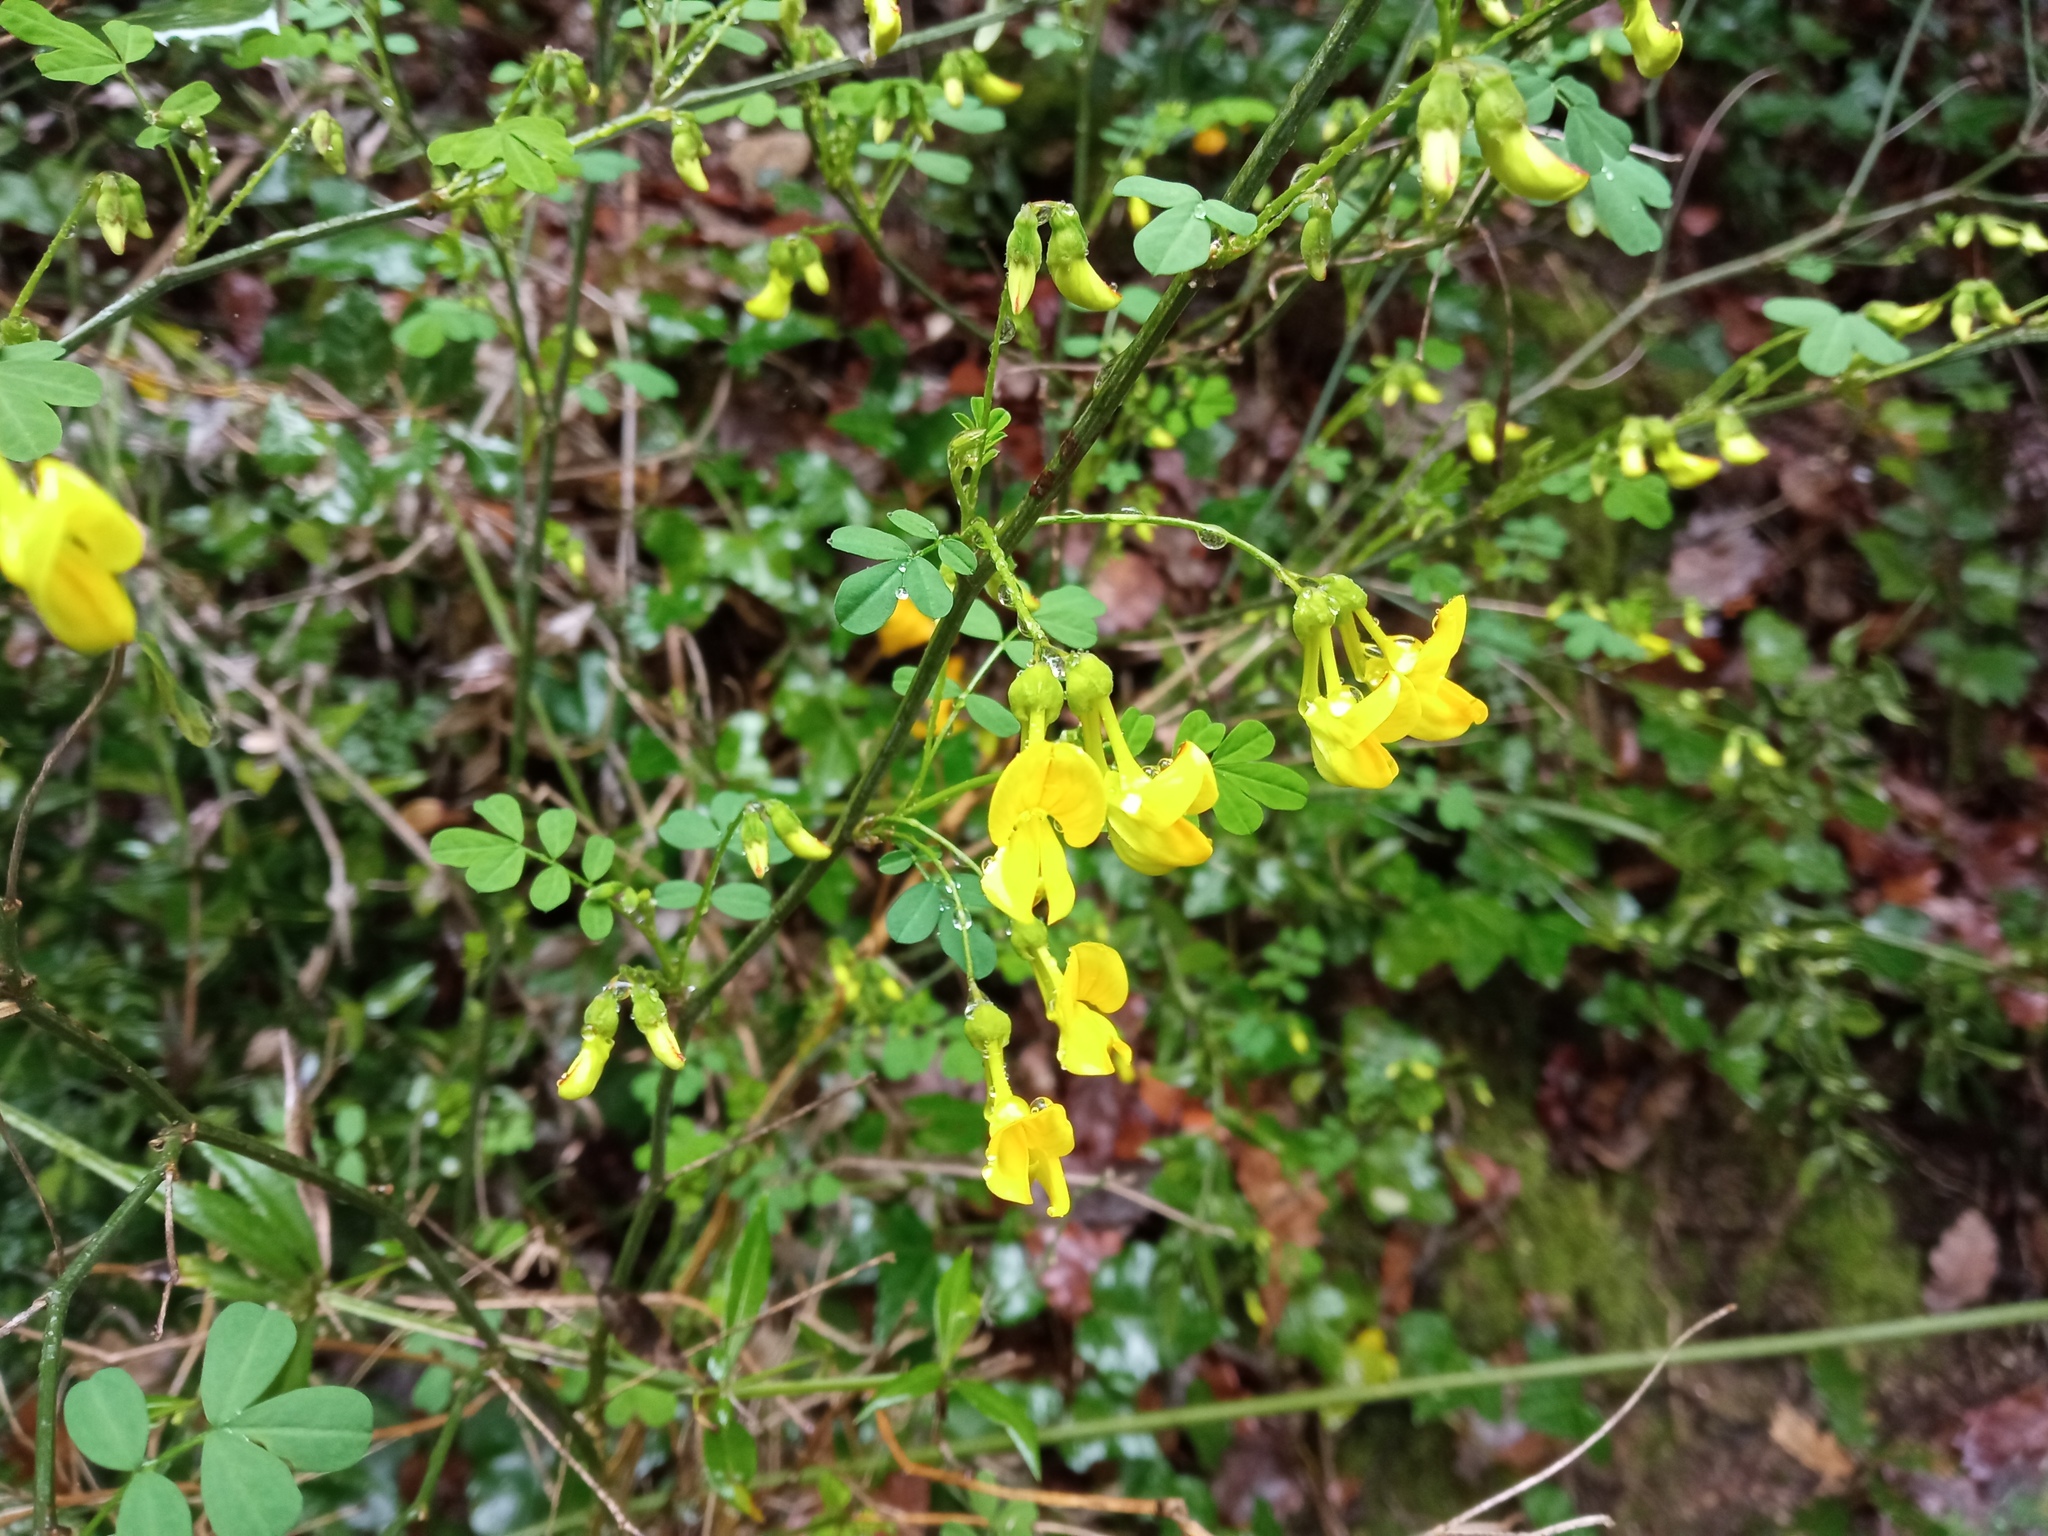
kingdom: Plantae
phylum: Tracheophyta
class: Magnoliopsida
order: Fabales
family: Fabaceae
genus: Hippocrepis
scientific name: Hippocrepis emerus
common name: Scorpion senna
